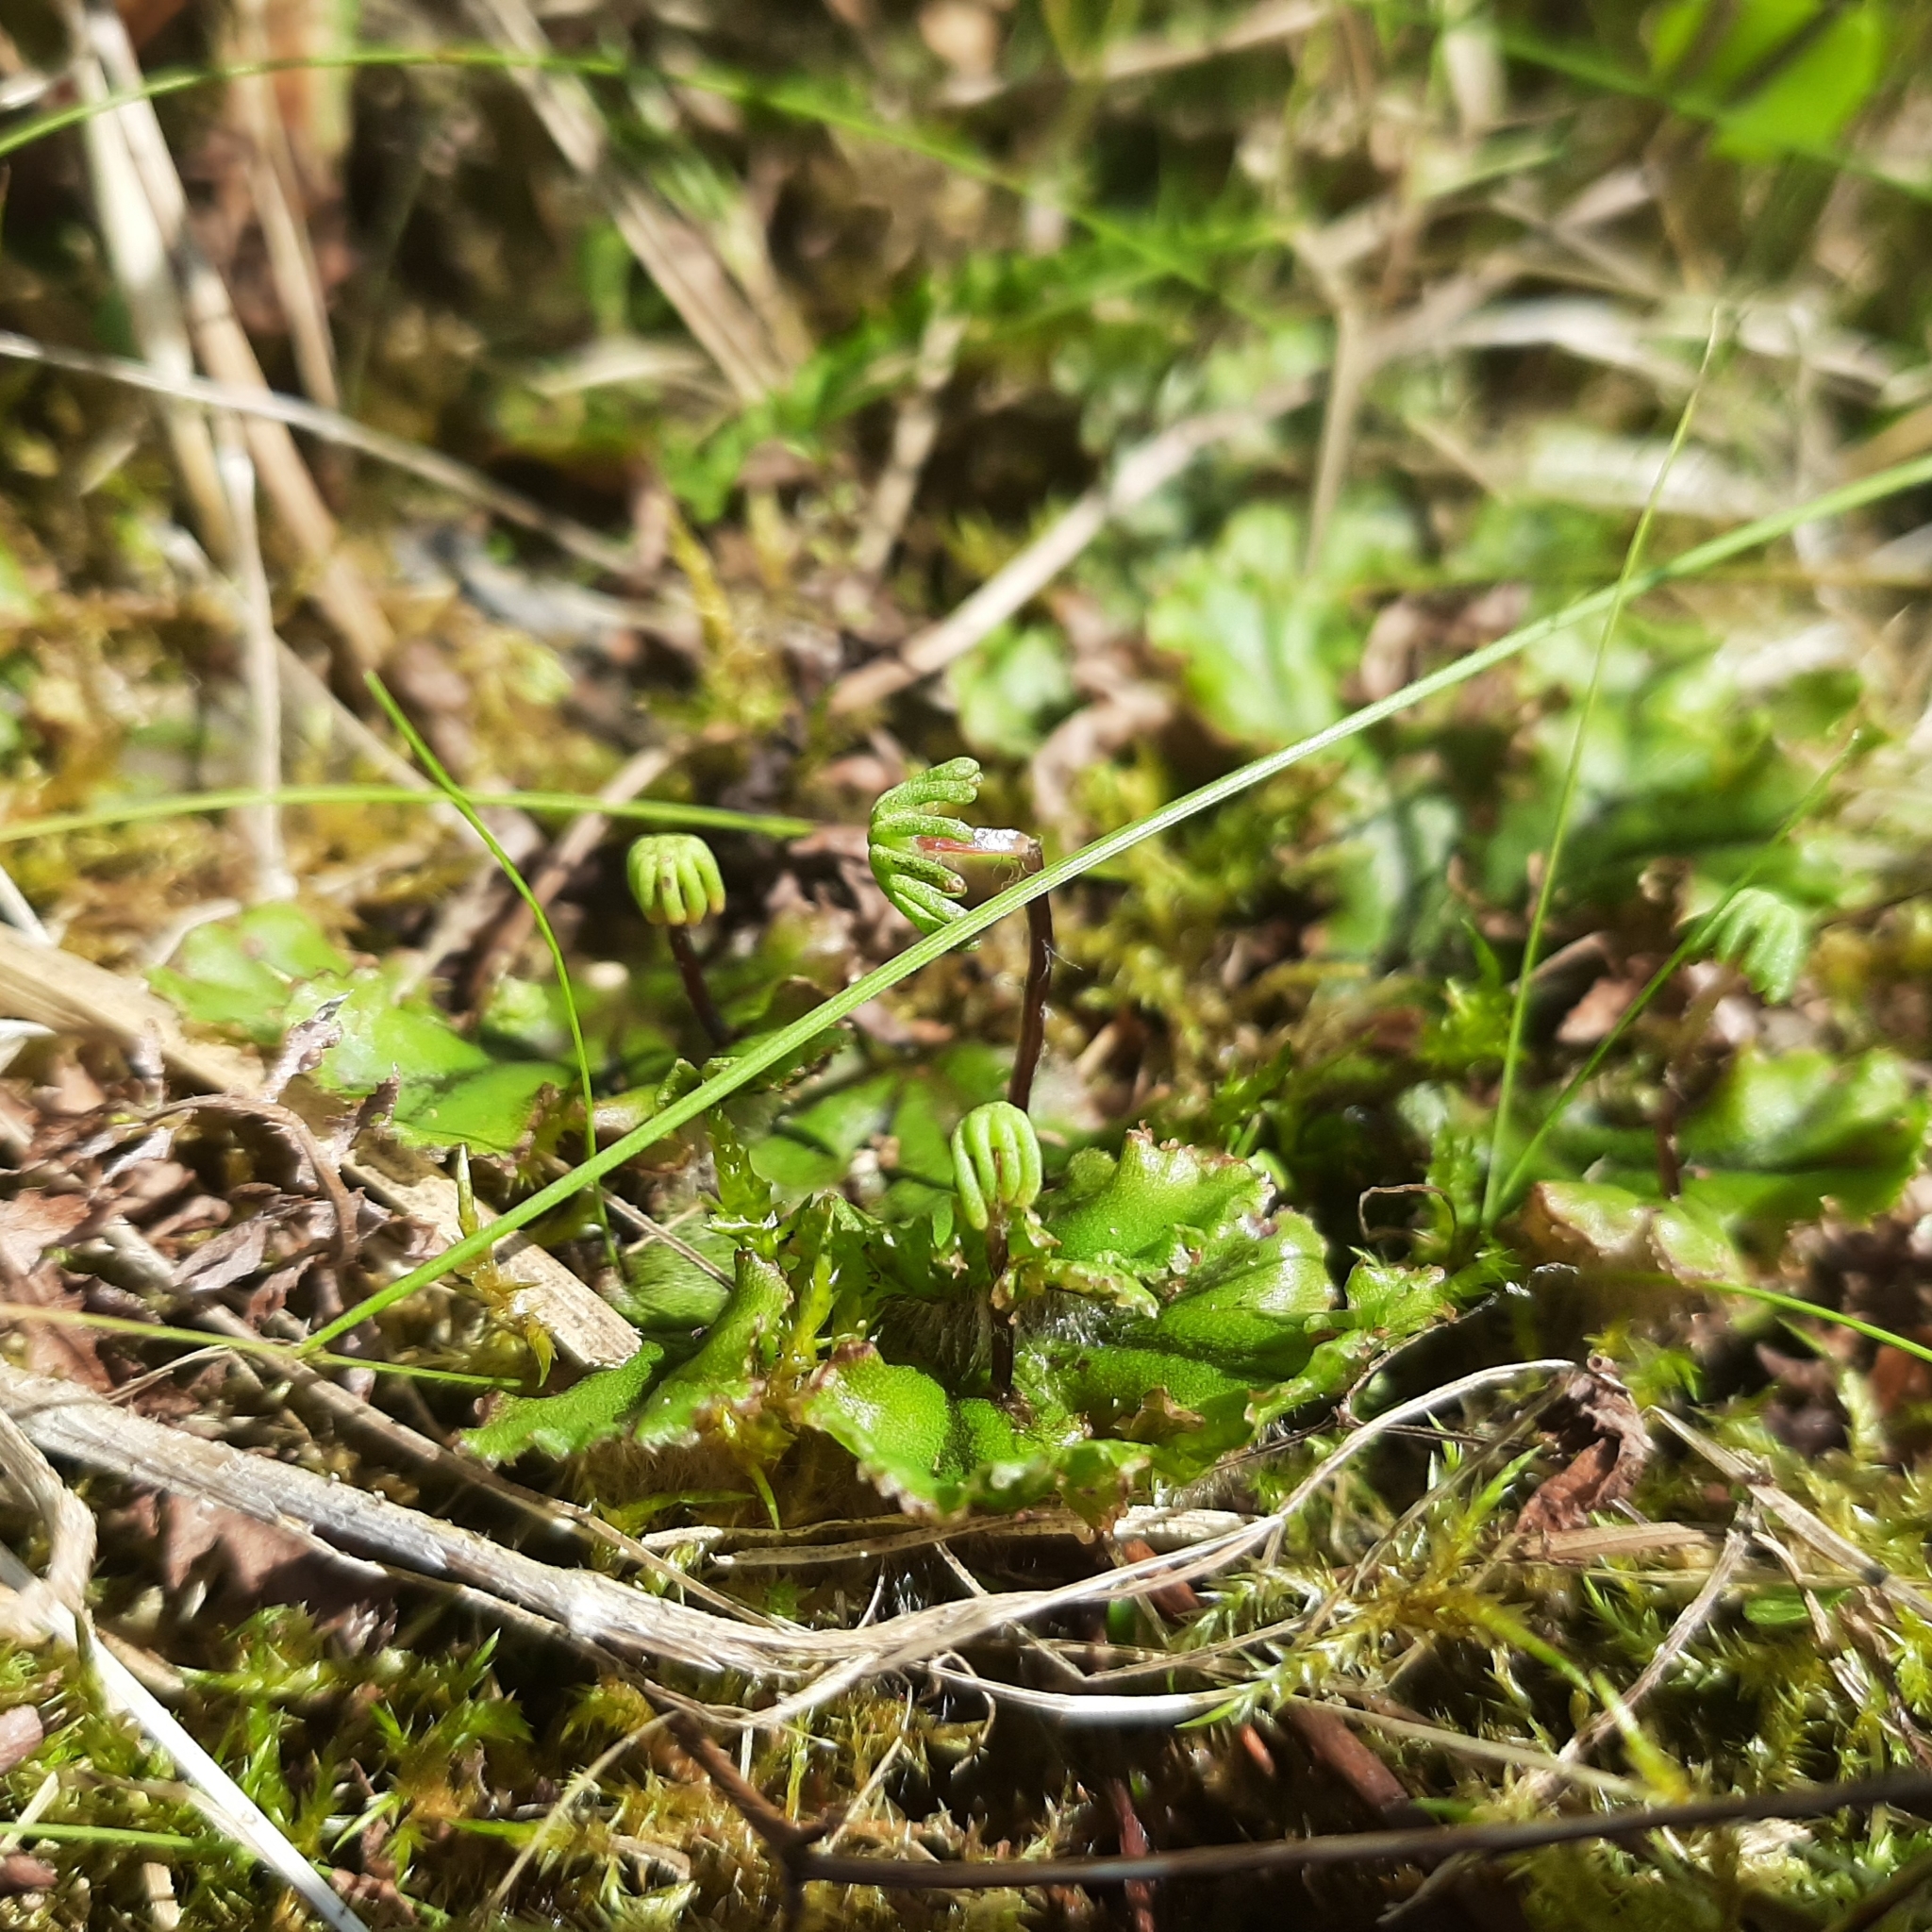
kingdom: Plantae
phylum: Marchantiophyta
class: Marchantiopsida
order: Marchantiales
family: Marchantiaceae
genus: Marchantia
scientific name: Marchantia polymorpha
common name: Common liverwort
